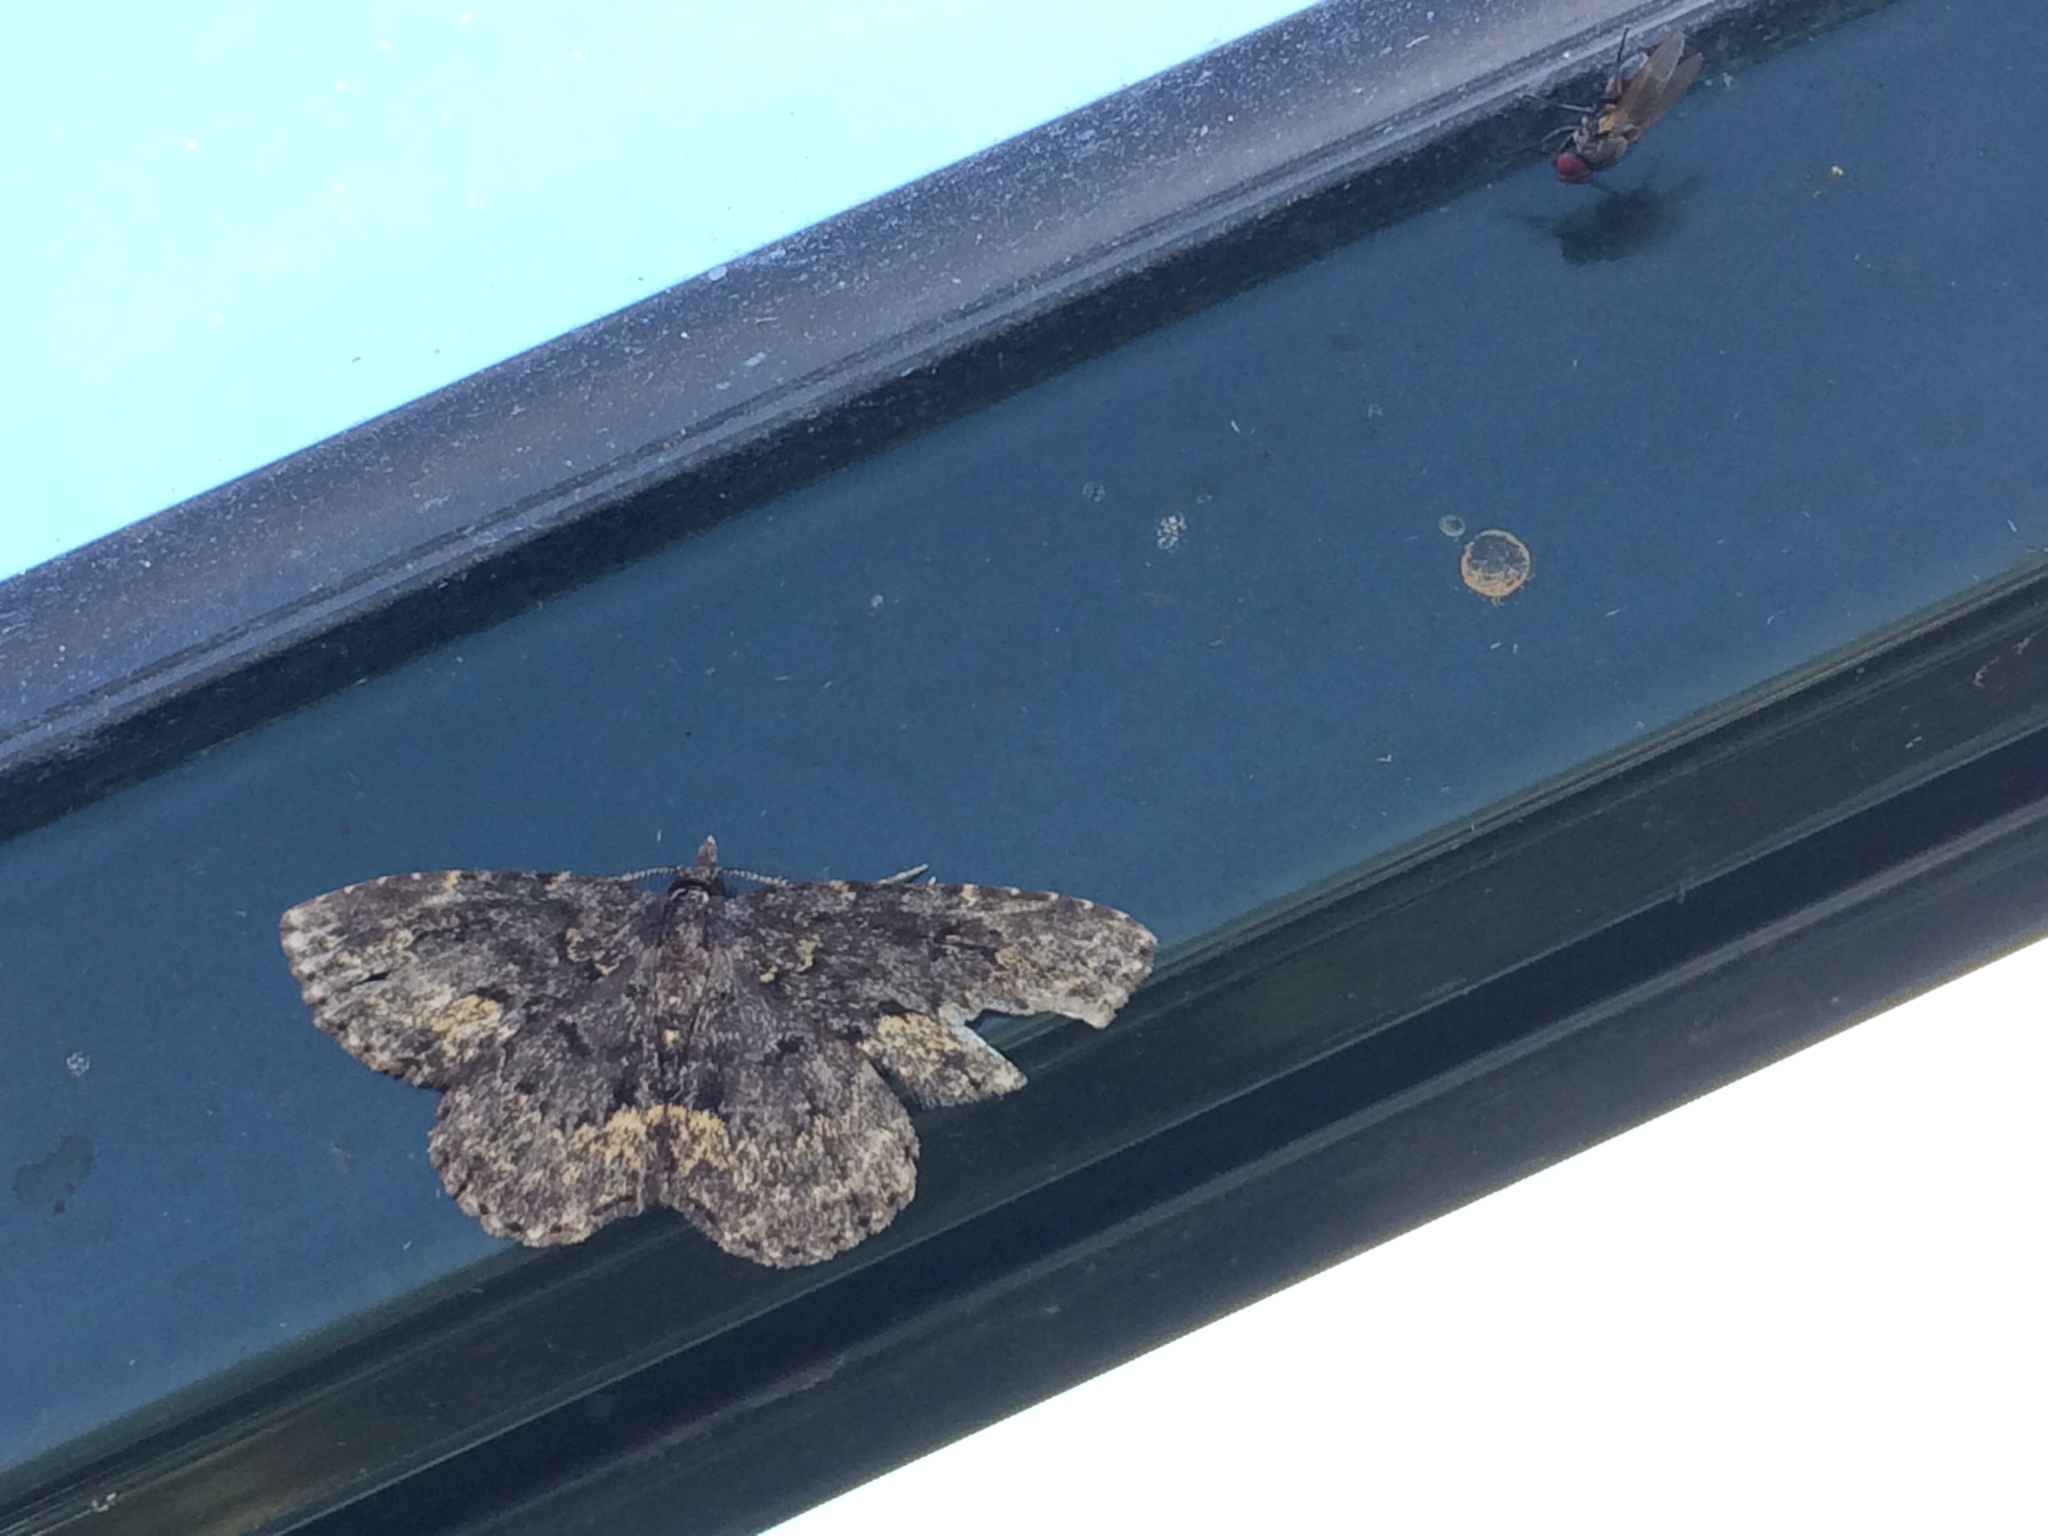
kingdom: Animalia
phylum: Arthropoda
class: Insecta
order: Lepidoptera
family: Erebidae
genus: Parascotia
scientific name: Parascotia fuliginaria
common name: Waved black
